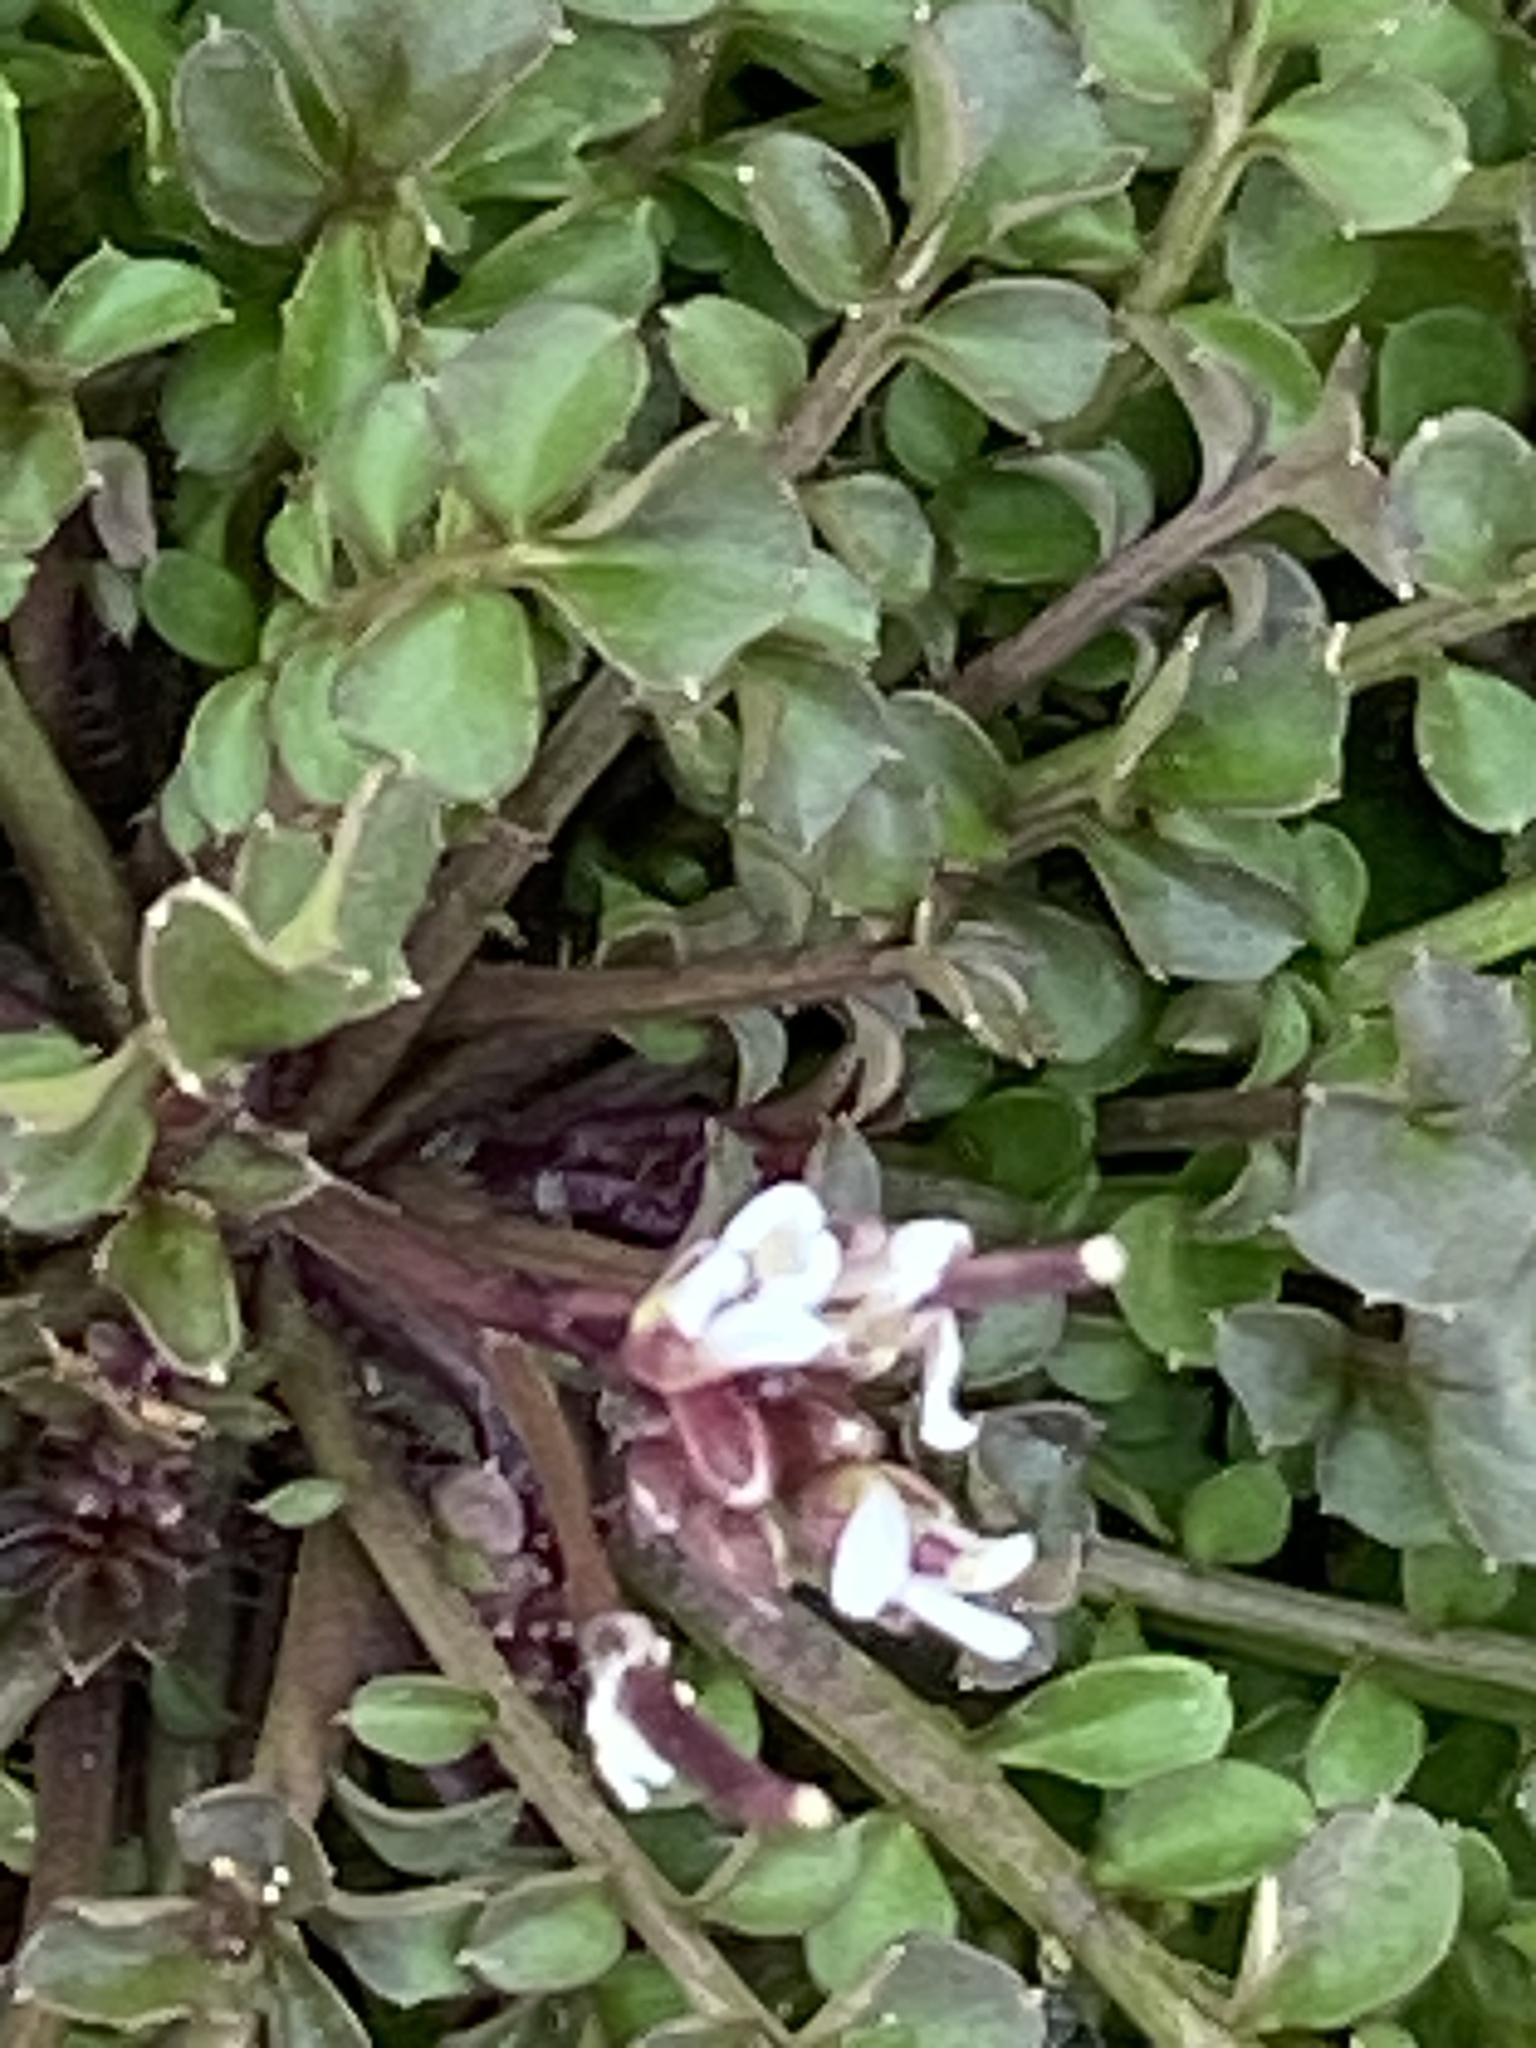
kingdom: Plantae
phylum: Tracheophyta
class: Magnoliopsida
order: Brassicales
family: Brassicaceae
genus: Cardamine
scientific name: Cardamine hirsuta
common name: Hairy bittercress
